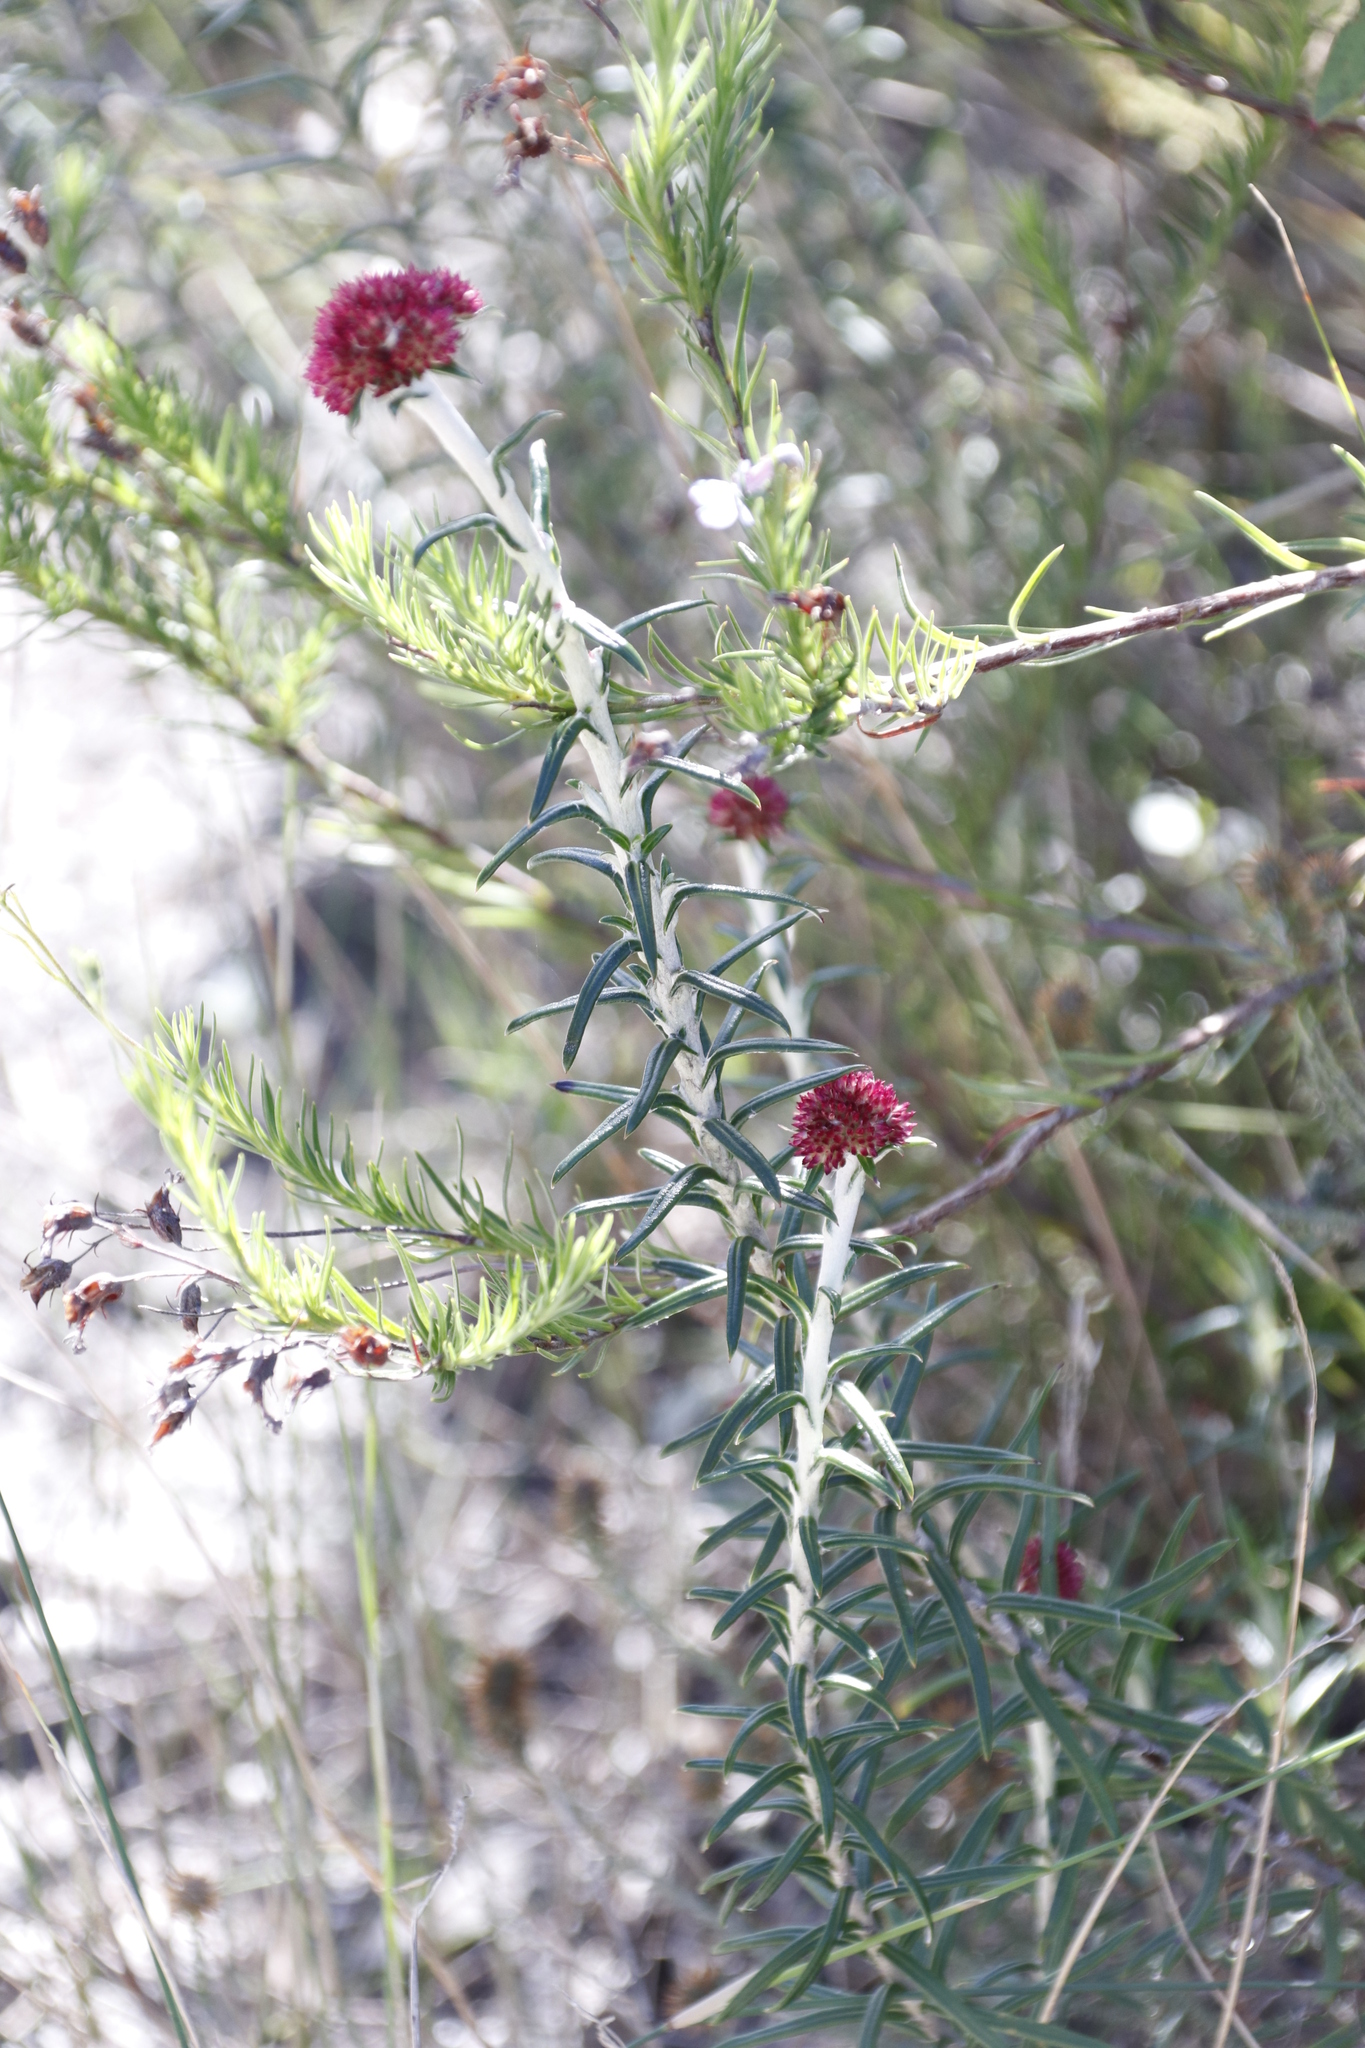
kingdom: Plantae
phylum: Tracheophyta
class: Magnoliopsida
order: Asterales
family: Asteraceae
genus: Anaxeton
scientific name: Anaxeton arborescens
